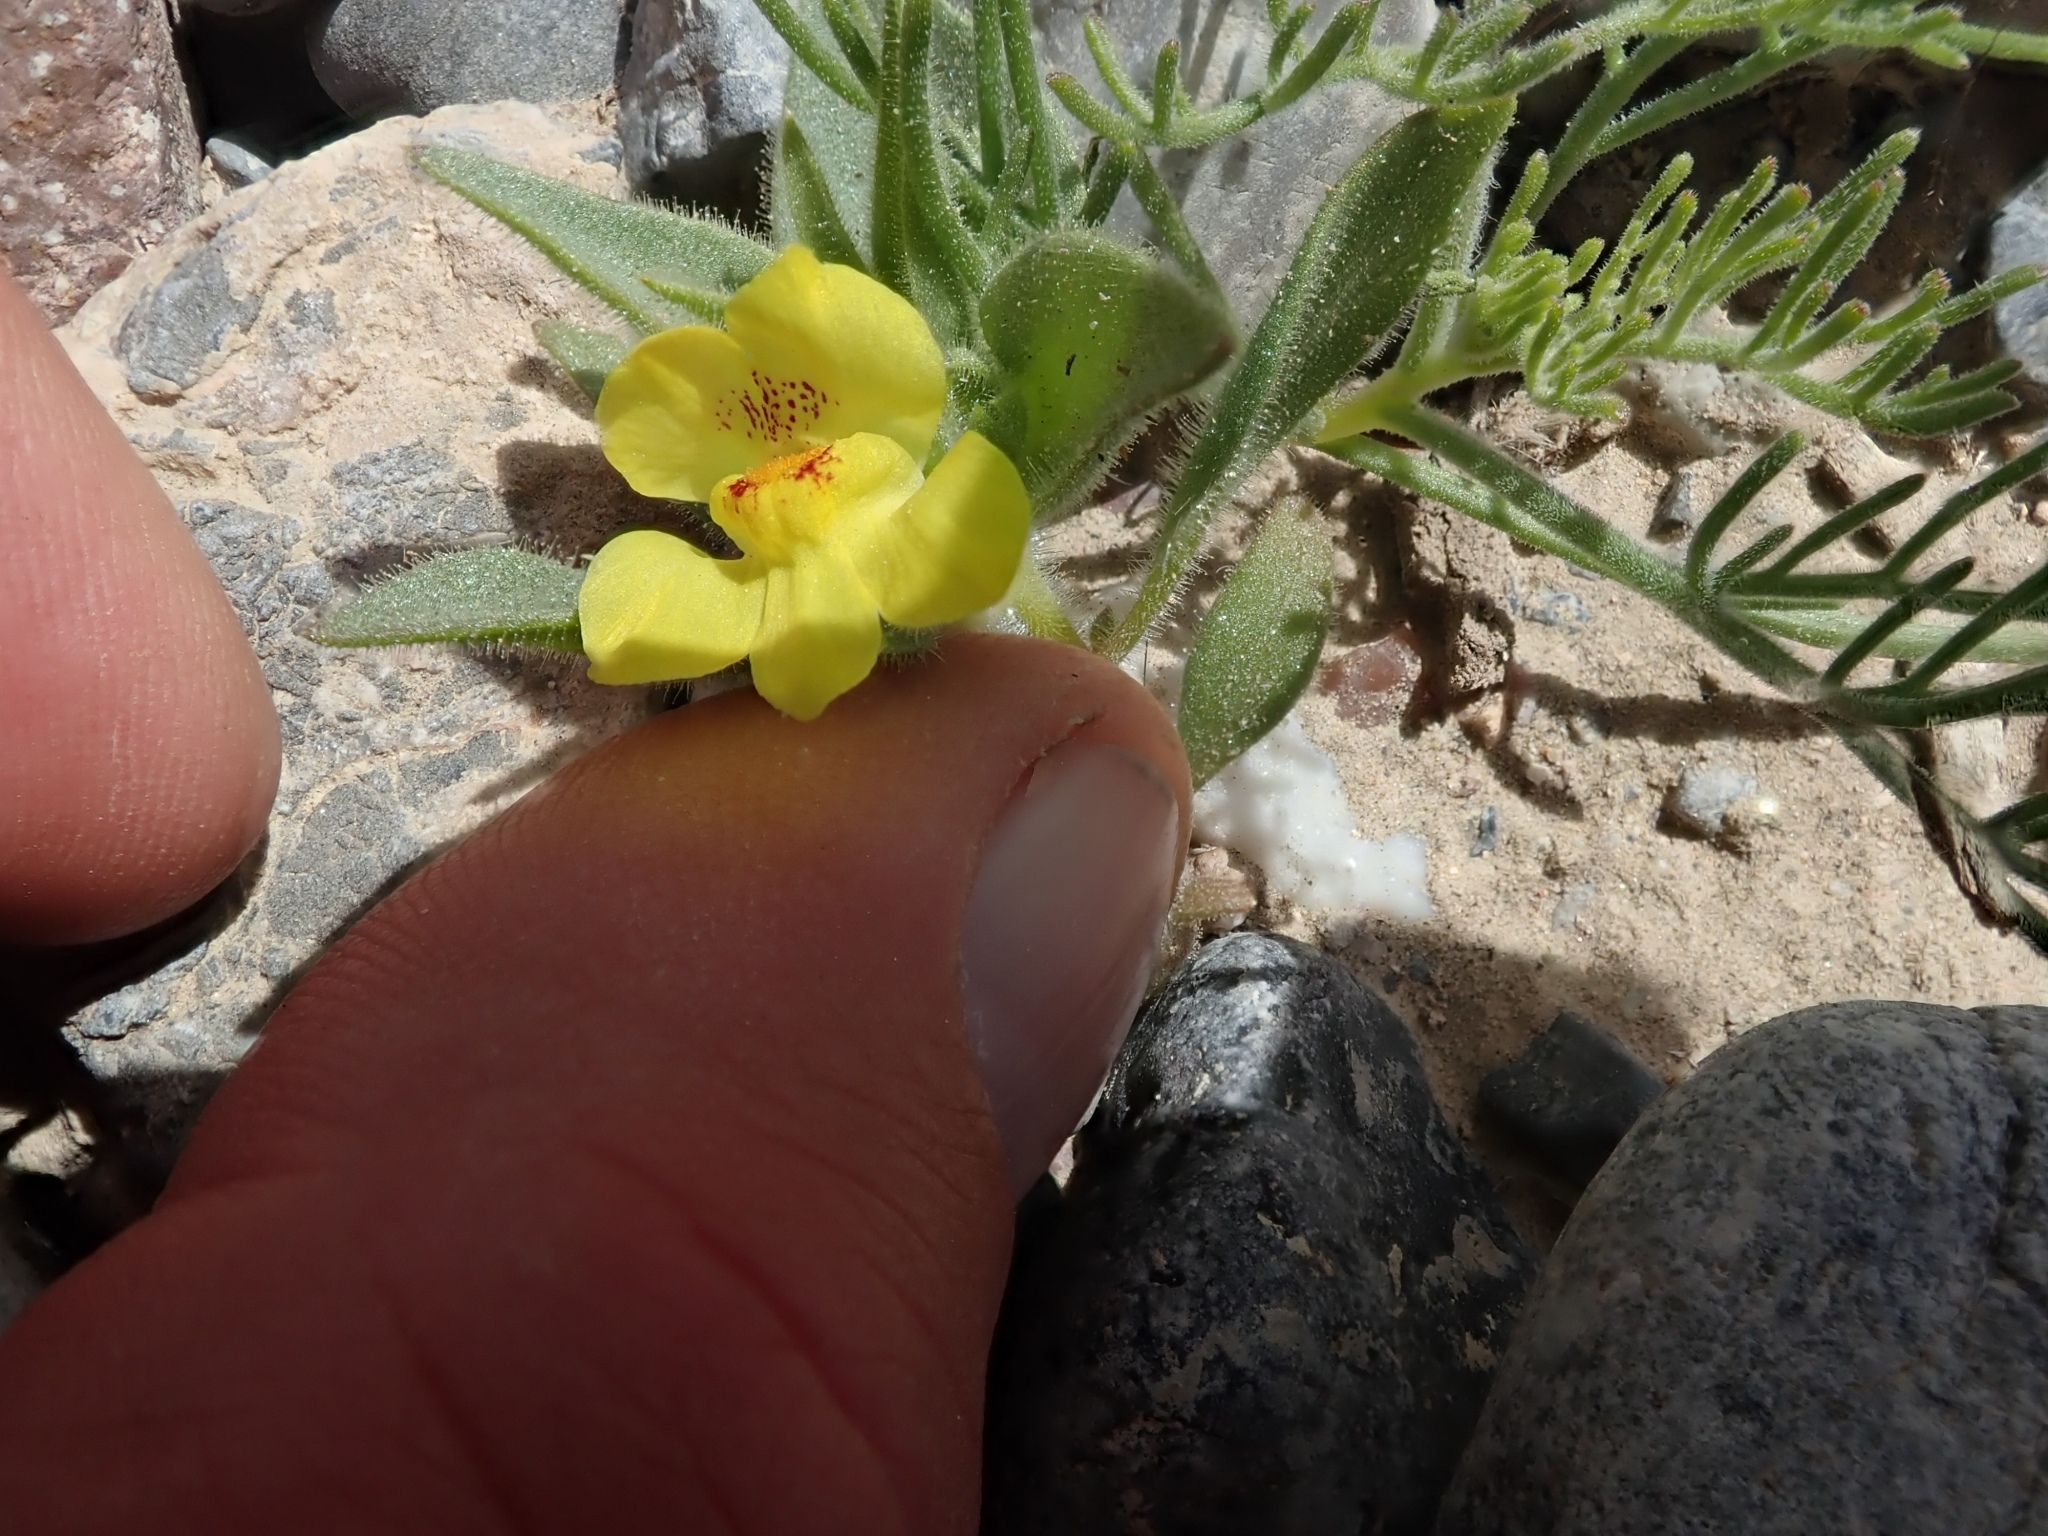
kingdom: Plantae
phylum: Tracheophyta
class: Magnoliopsida
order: Lamiales
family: Plantaginaceae
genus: Mohavea
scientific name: Mohavea breviflora
